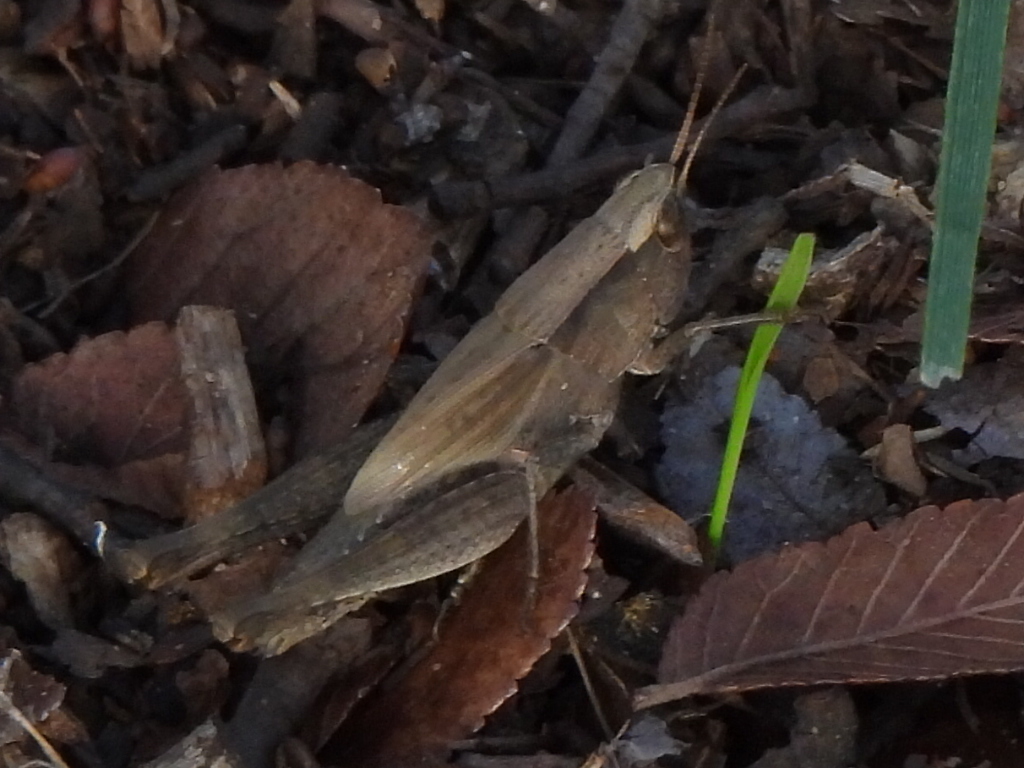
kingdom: Animalia
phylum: Arthropoda
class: Insecta
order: Orthoptera
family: Acrididae
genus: Dichromorpha
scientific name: Dichromorpha viridis
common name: Short-winged green grasshopper
